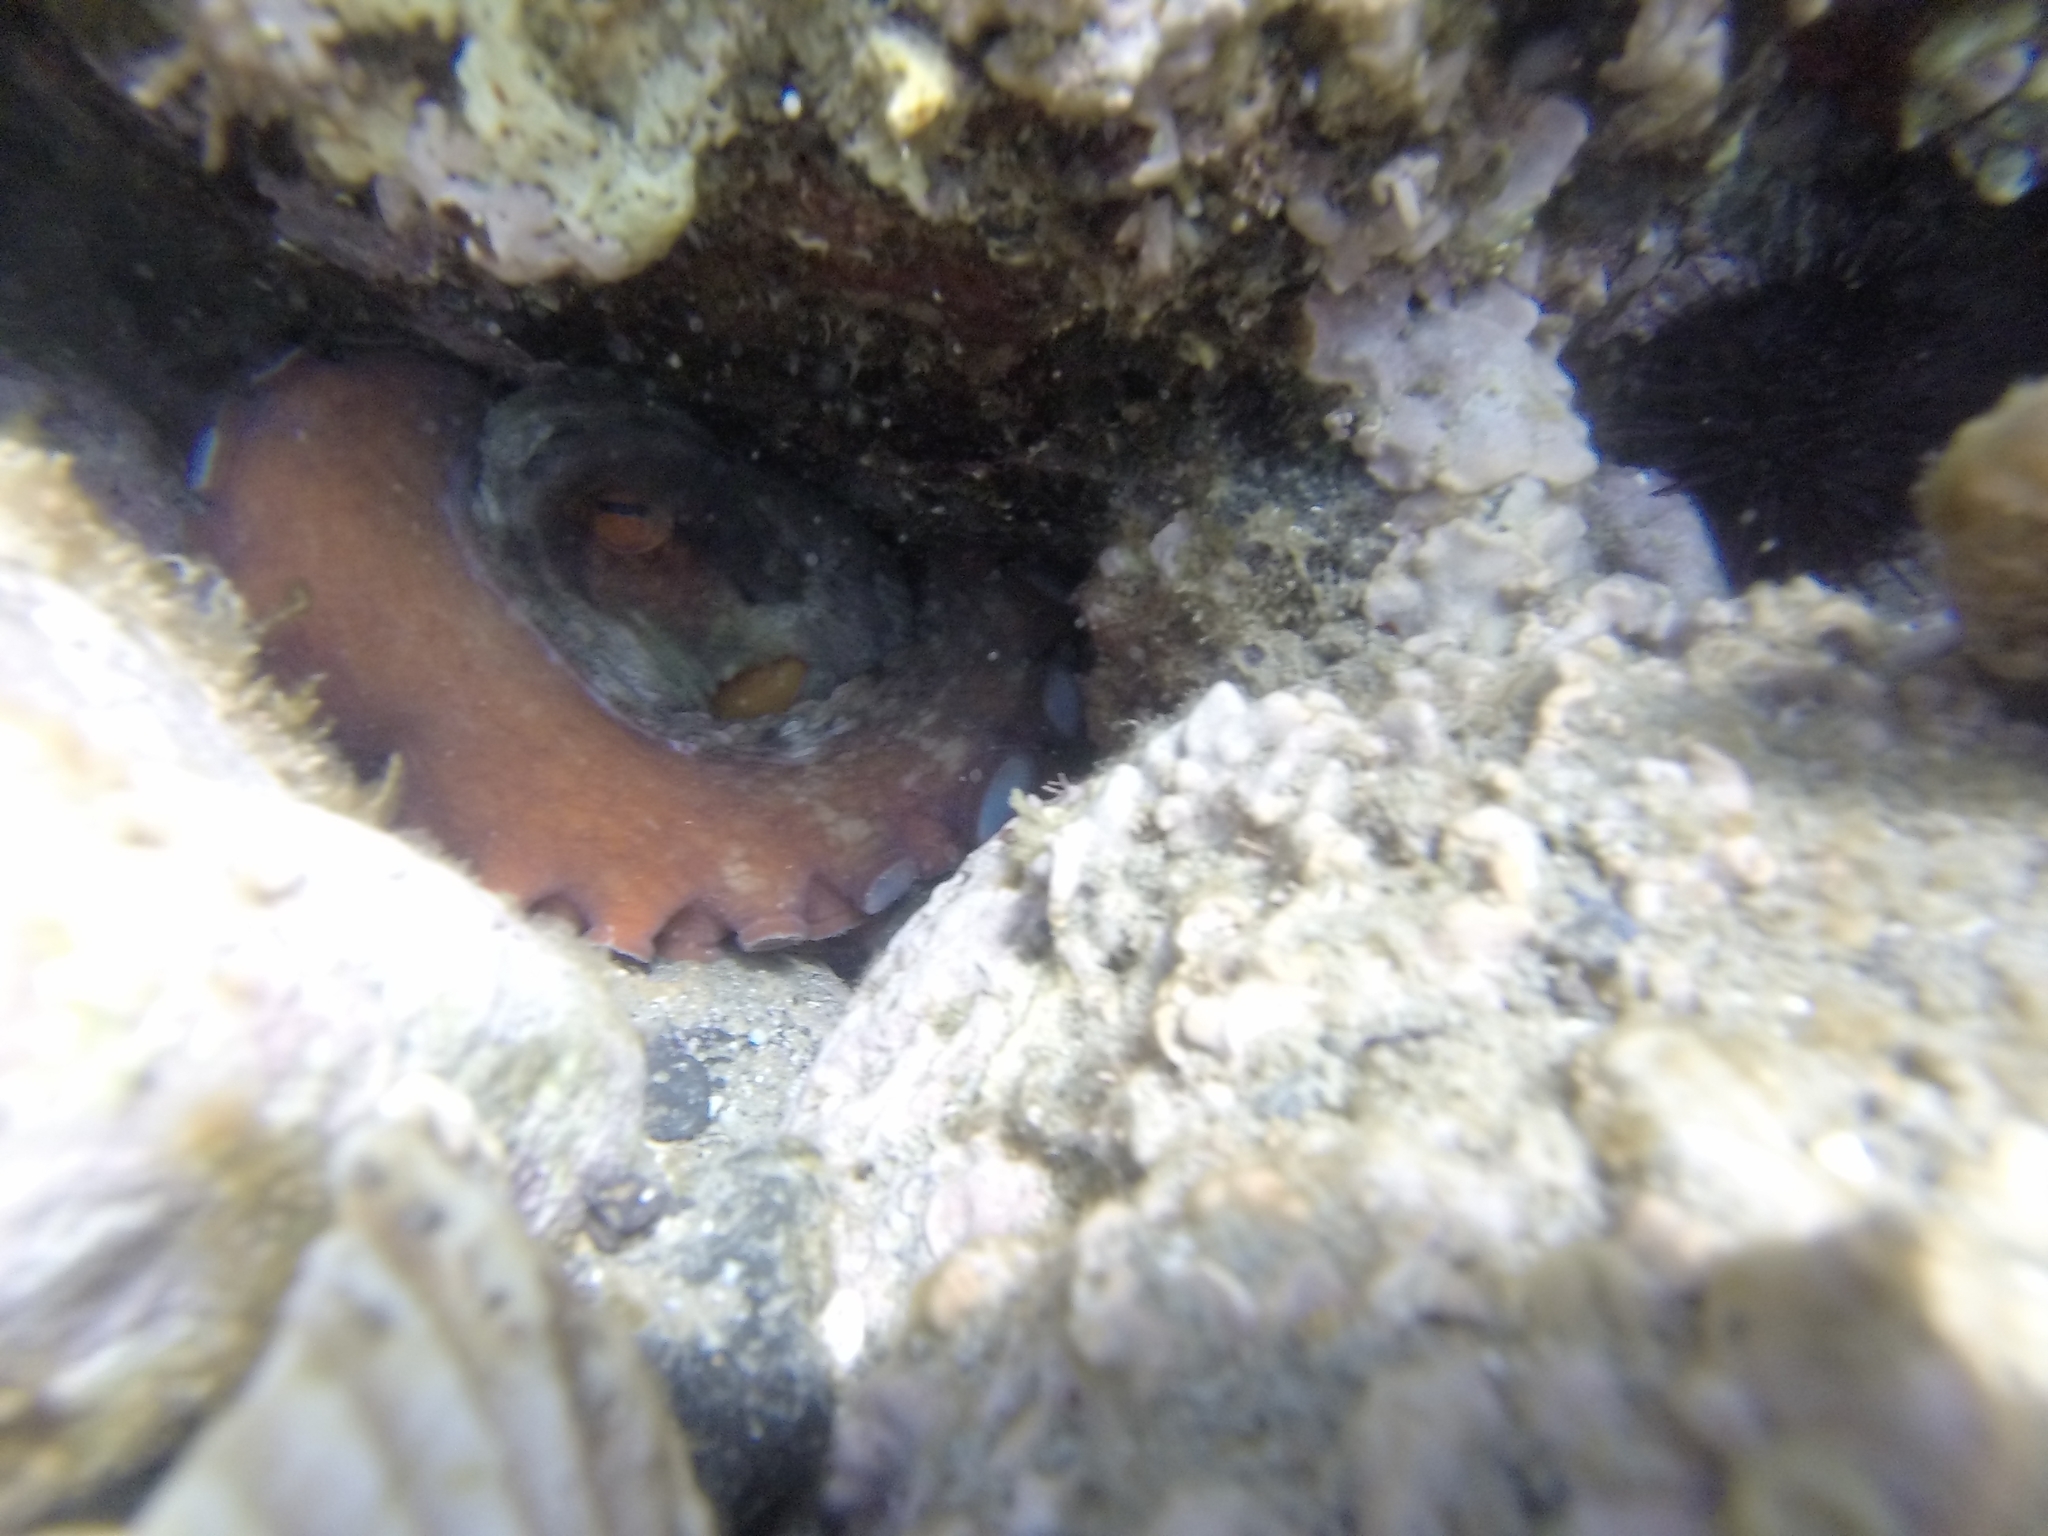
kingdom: Animalia
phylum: Mollusca
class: Cephalopoda
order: Octopoda
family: Octopodidae
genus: Octopus
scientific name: Octopus vulgaris
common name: Common octopus
